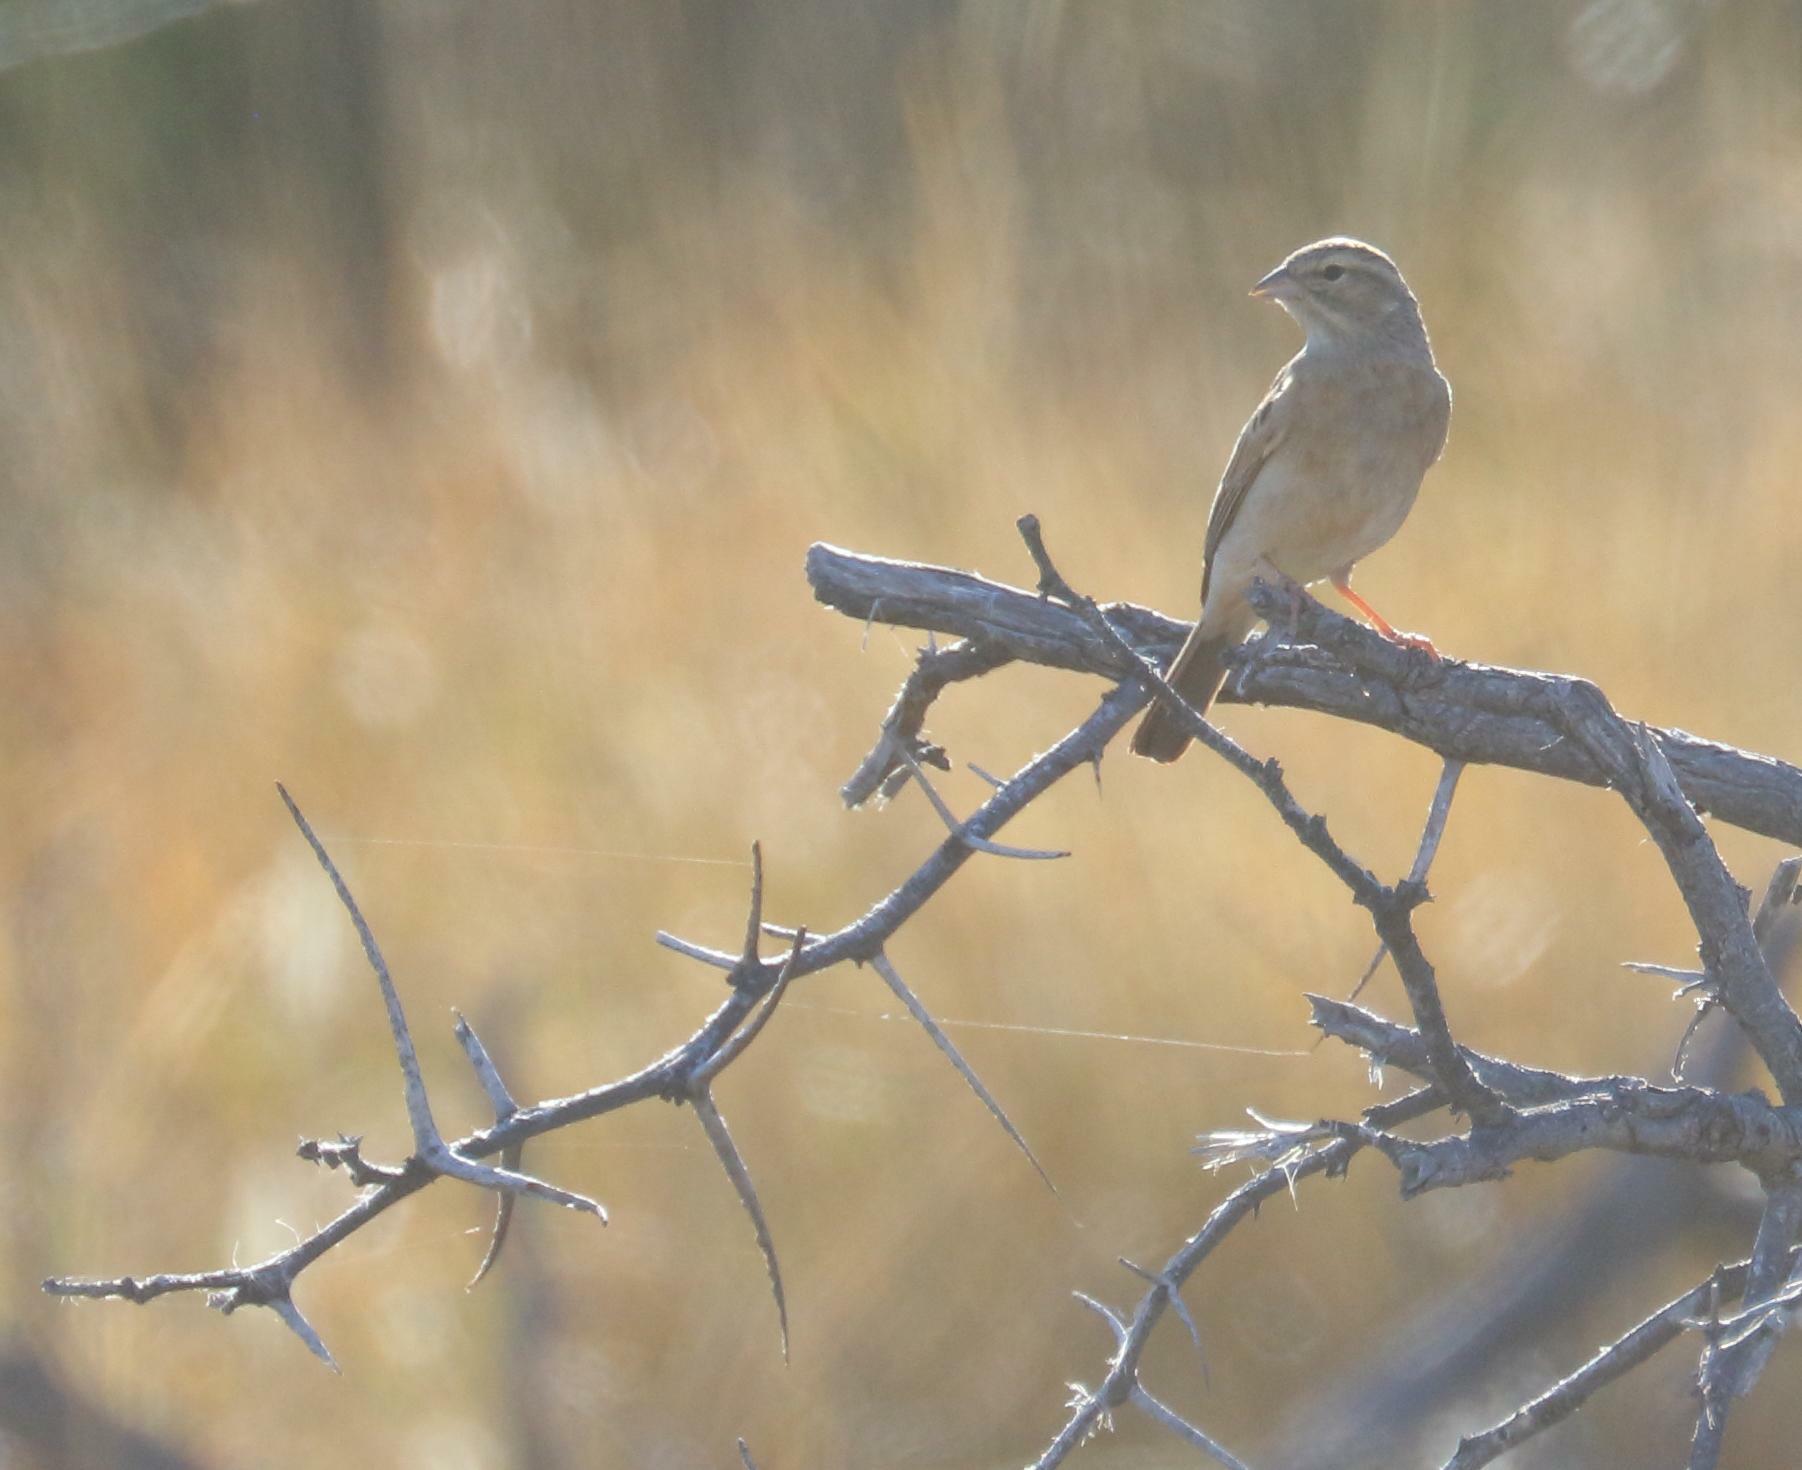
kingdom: Animalia
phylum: Chordata
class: Aves
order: Passeriformes
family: Emberizidae
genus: Emberiza
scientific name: Emberiza impetuani
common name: Lark-like bunting
